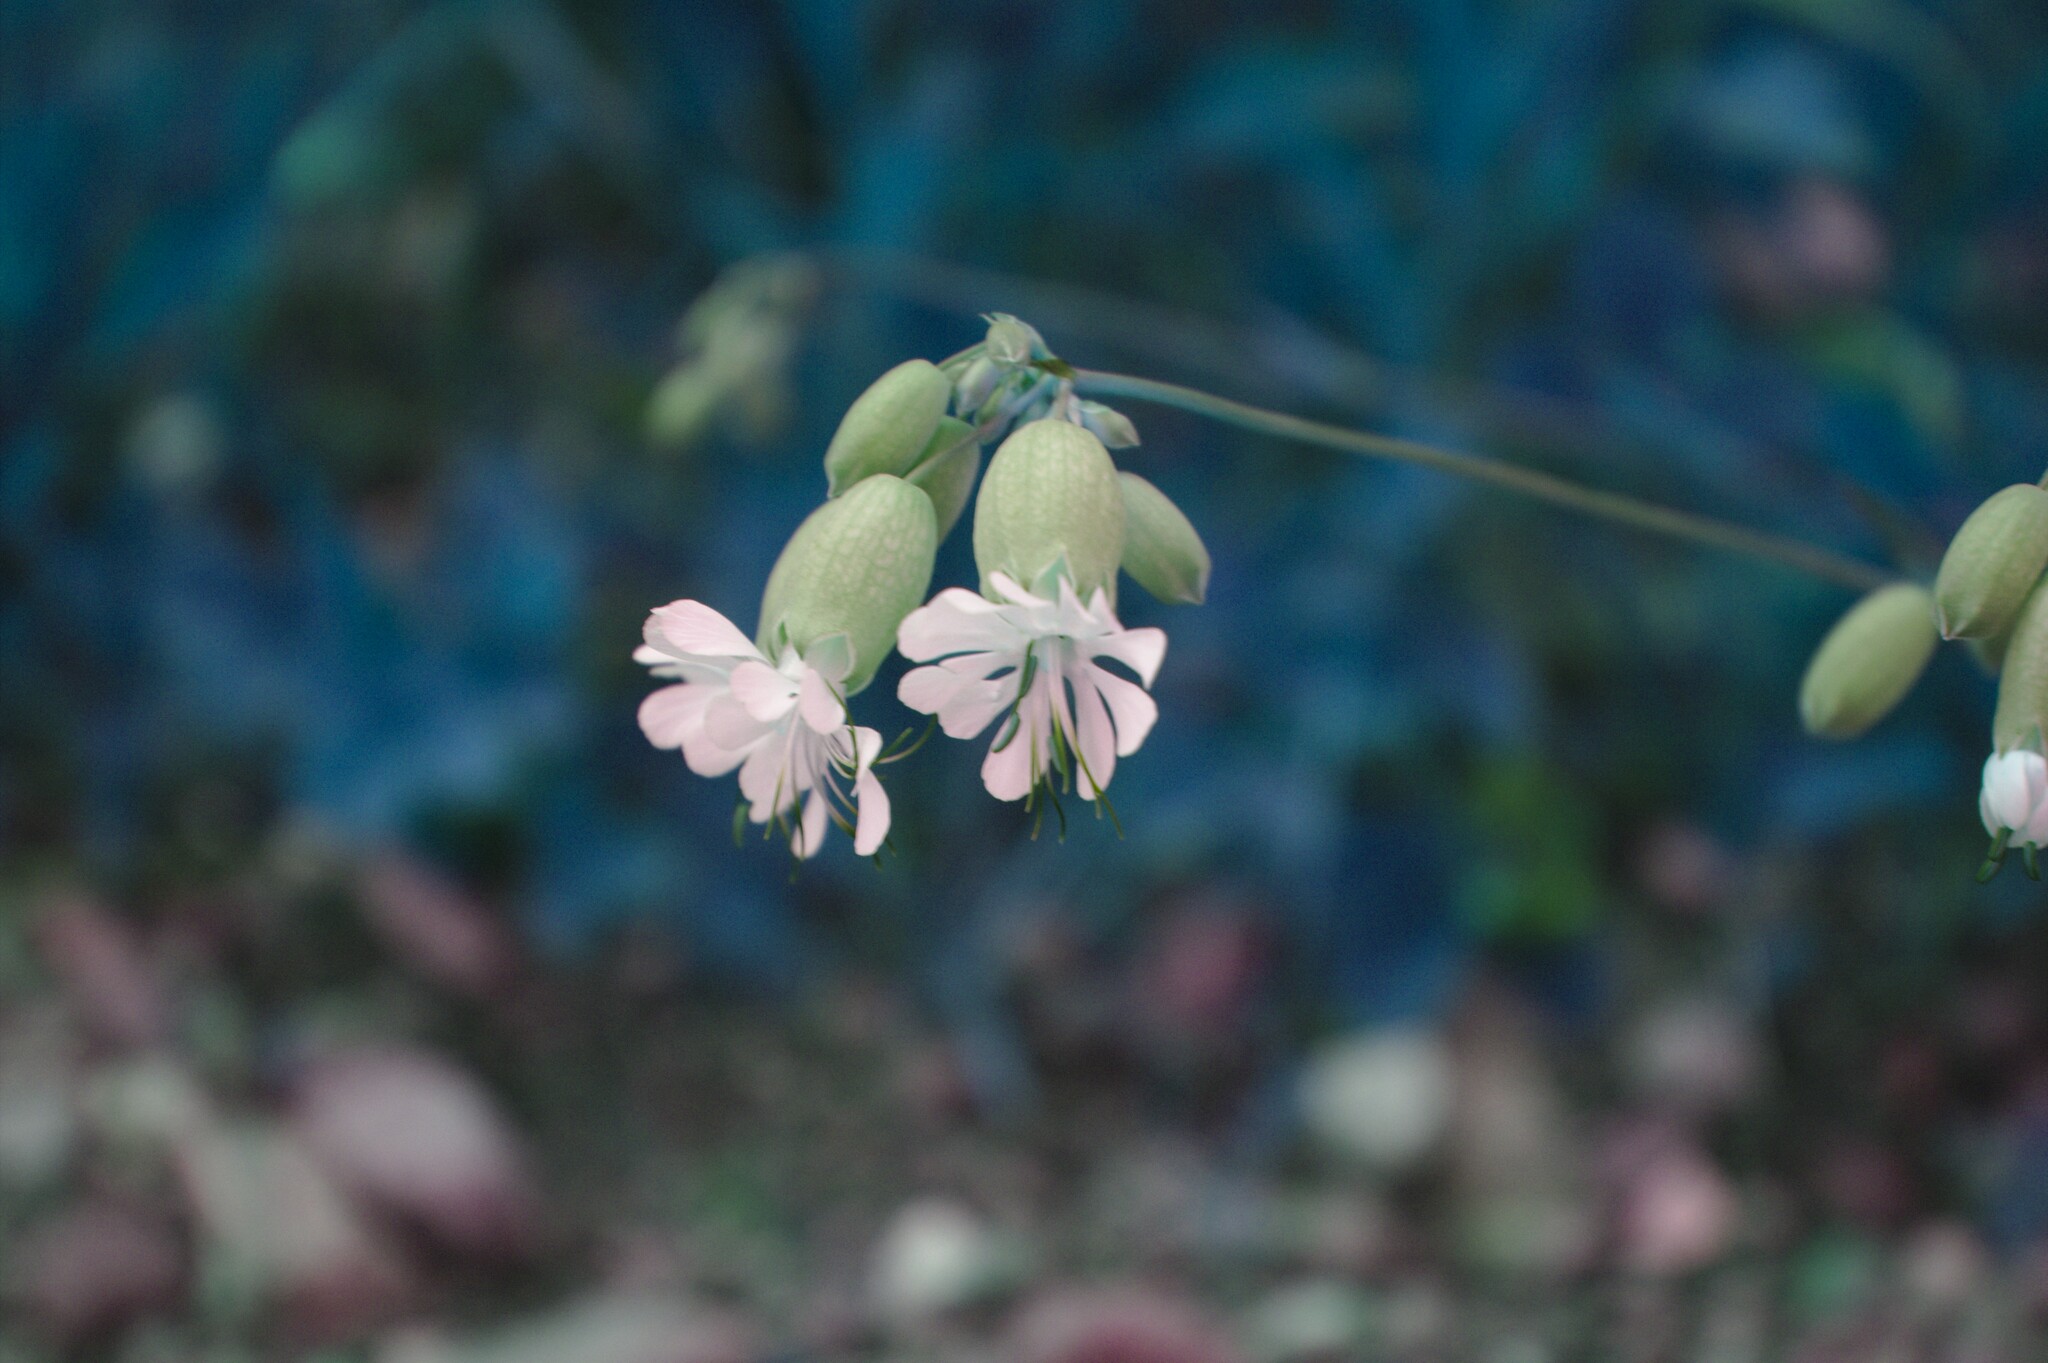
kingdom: Plantae
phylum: Tracheophyta
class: Magnoliopsida
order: Caryophyllales
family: Caryophyllaceae
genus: Silene
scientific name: Silene vulgaris
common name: Bladder campion
